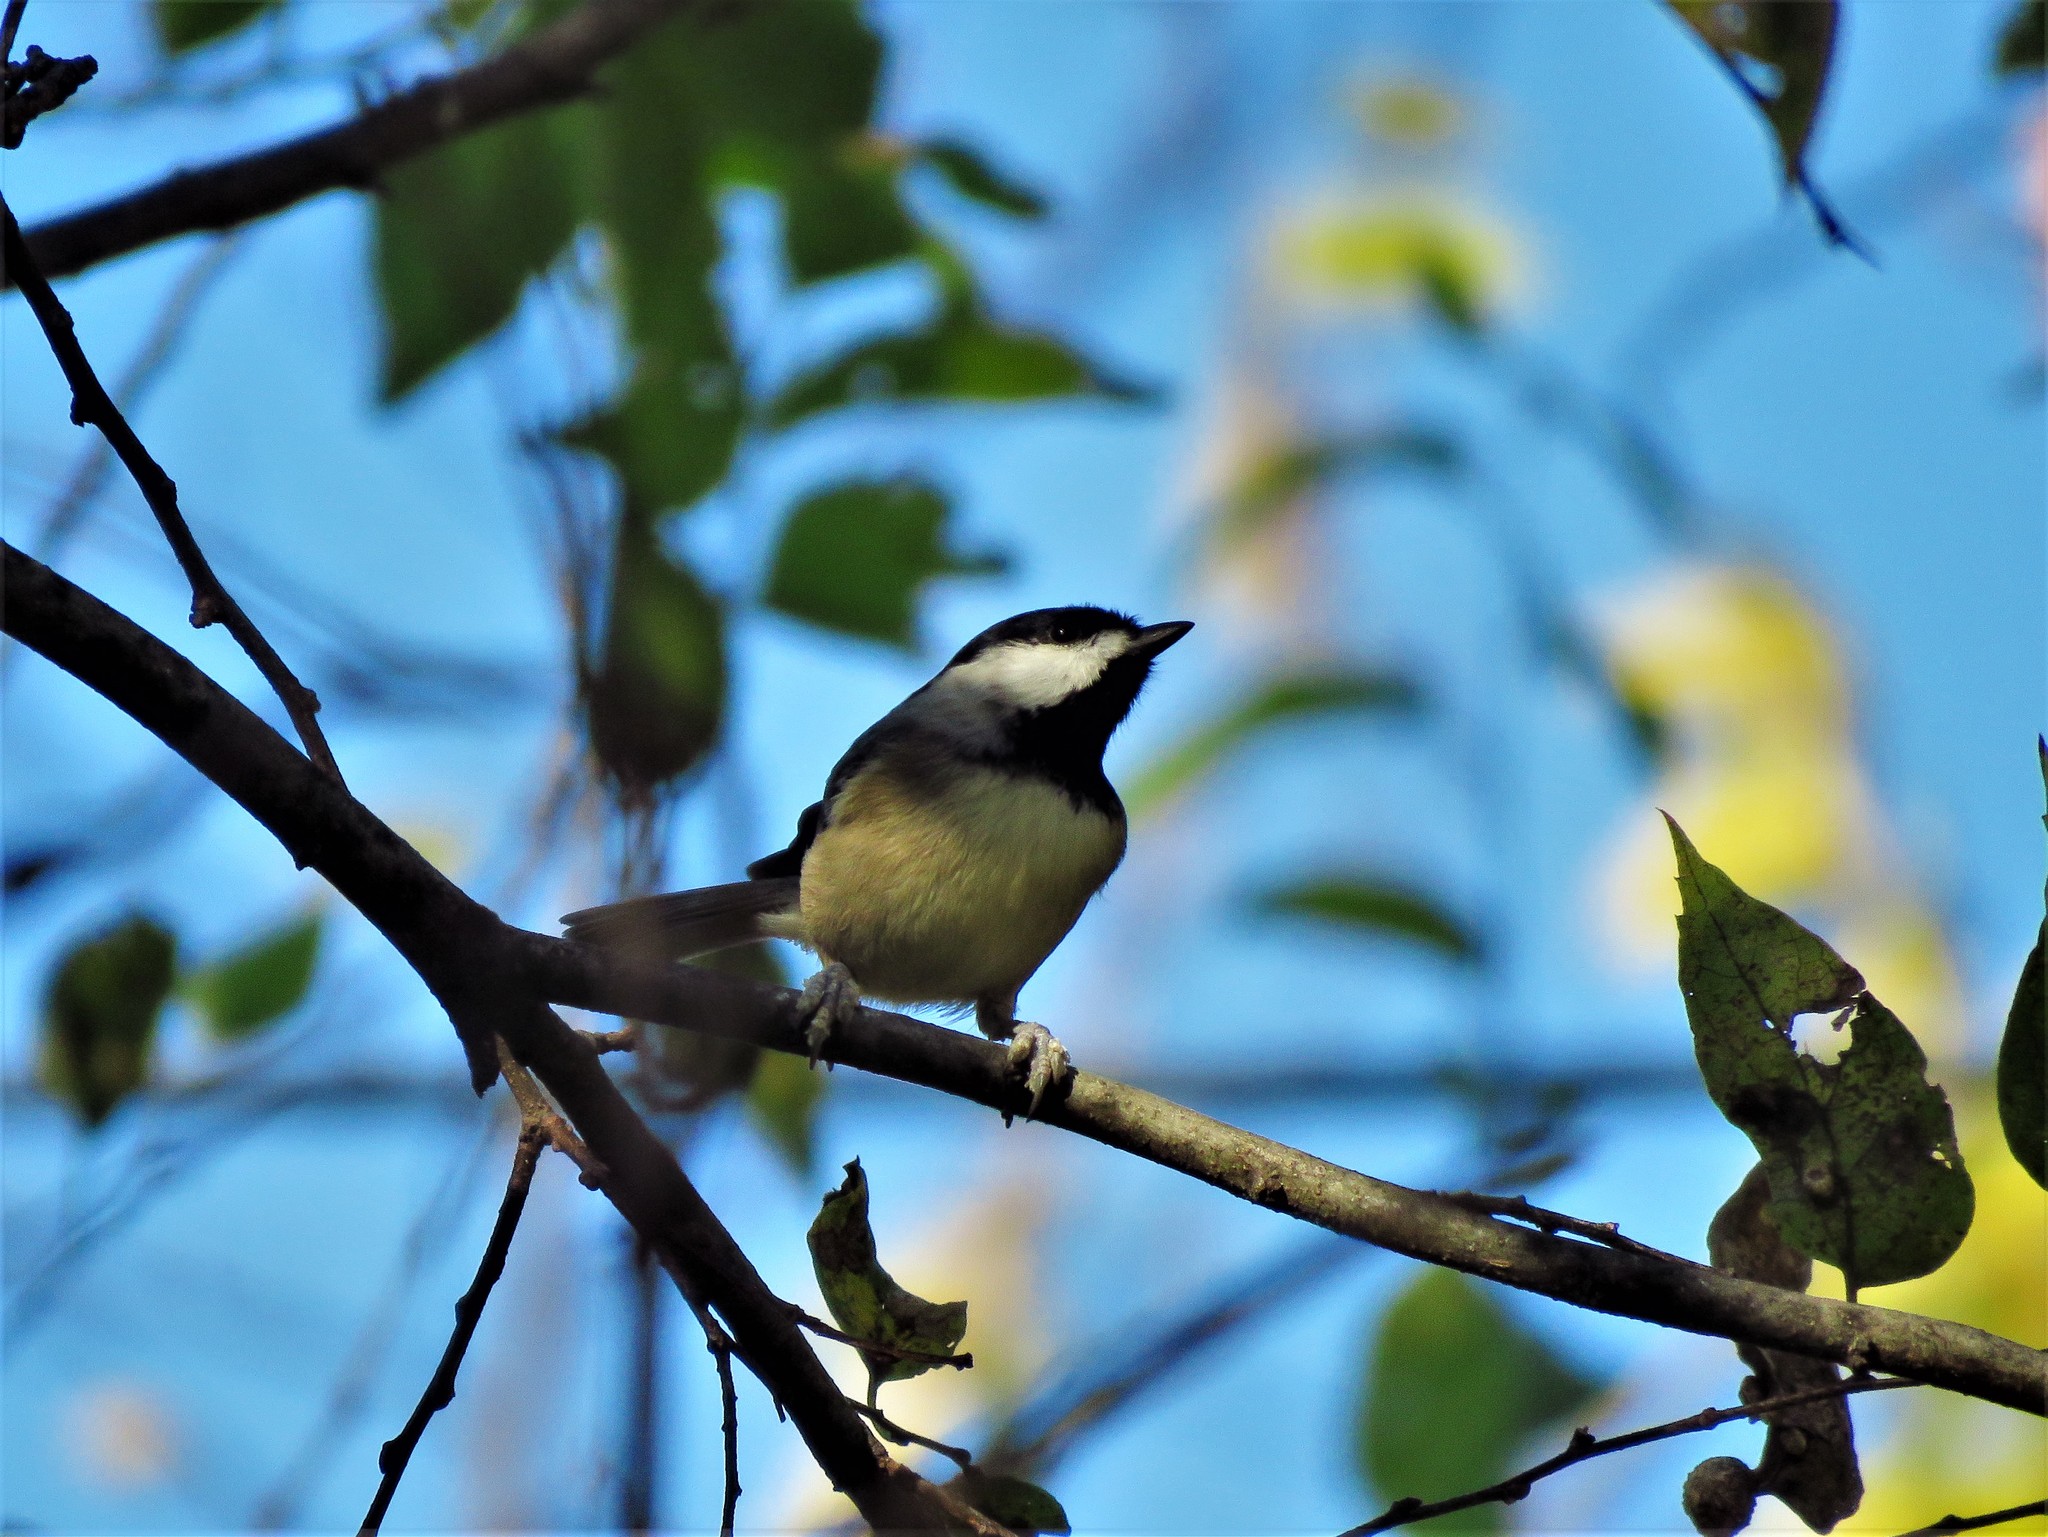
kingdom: Animalia
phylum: Chordata
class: Aves
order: Passeriformes
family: Paridae
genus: Poecile
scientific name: Poecile carolinensis
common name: Carolina chickadee
